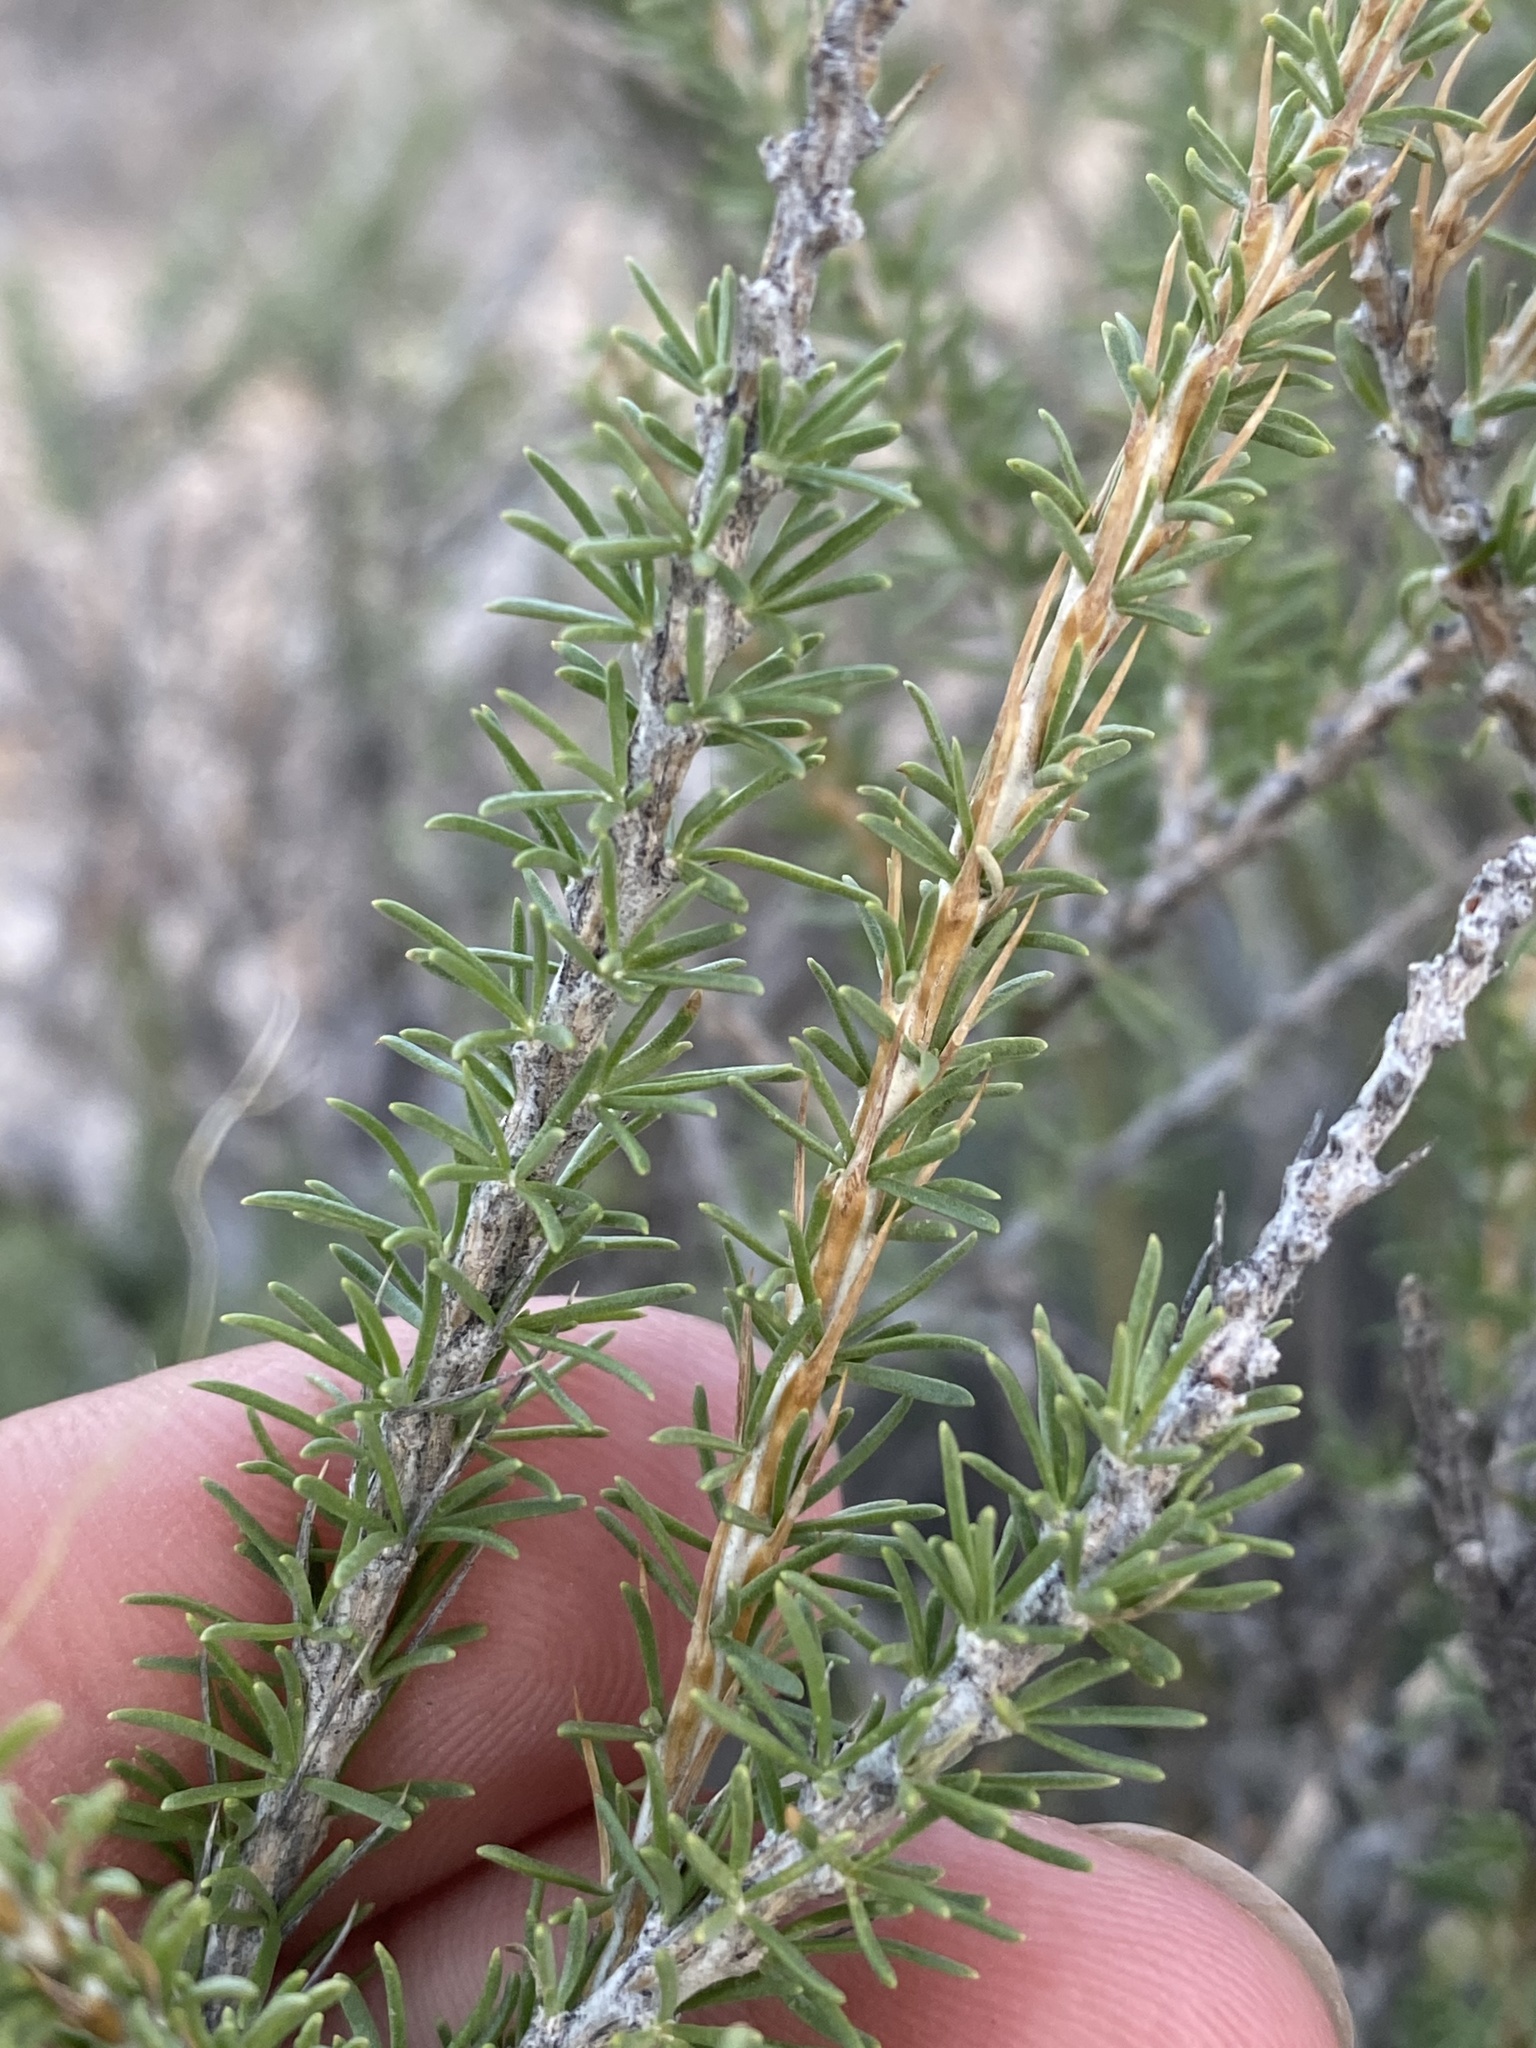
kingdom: Plantae
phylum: Tracheophyta
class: Magnoliopsida
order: Asterales
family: Asteraceae
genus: Tetradymia
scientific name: Tetradymia glabrata
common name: Smooth tetradymia
